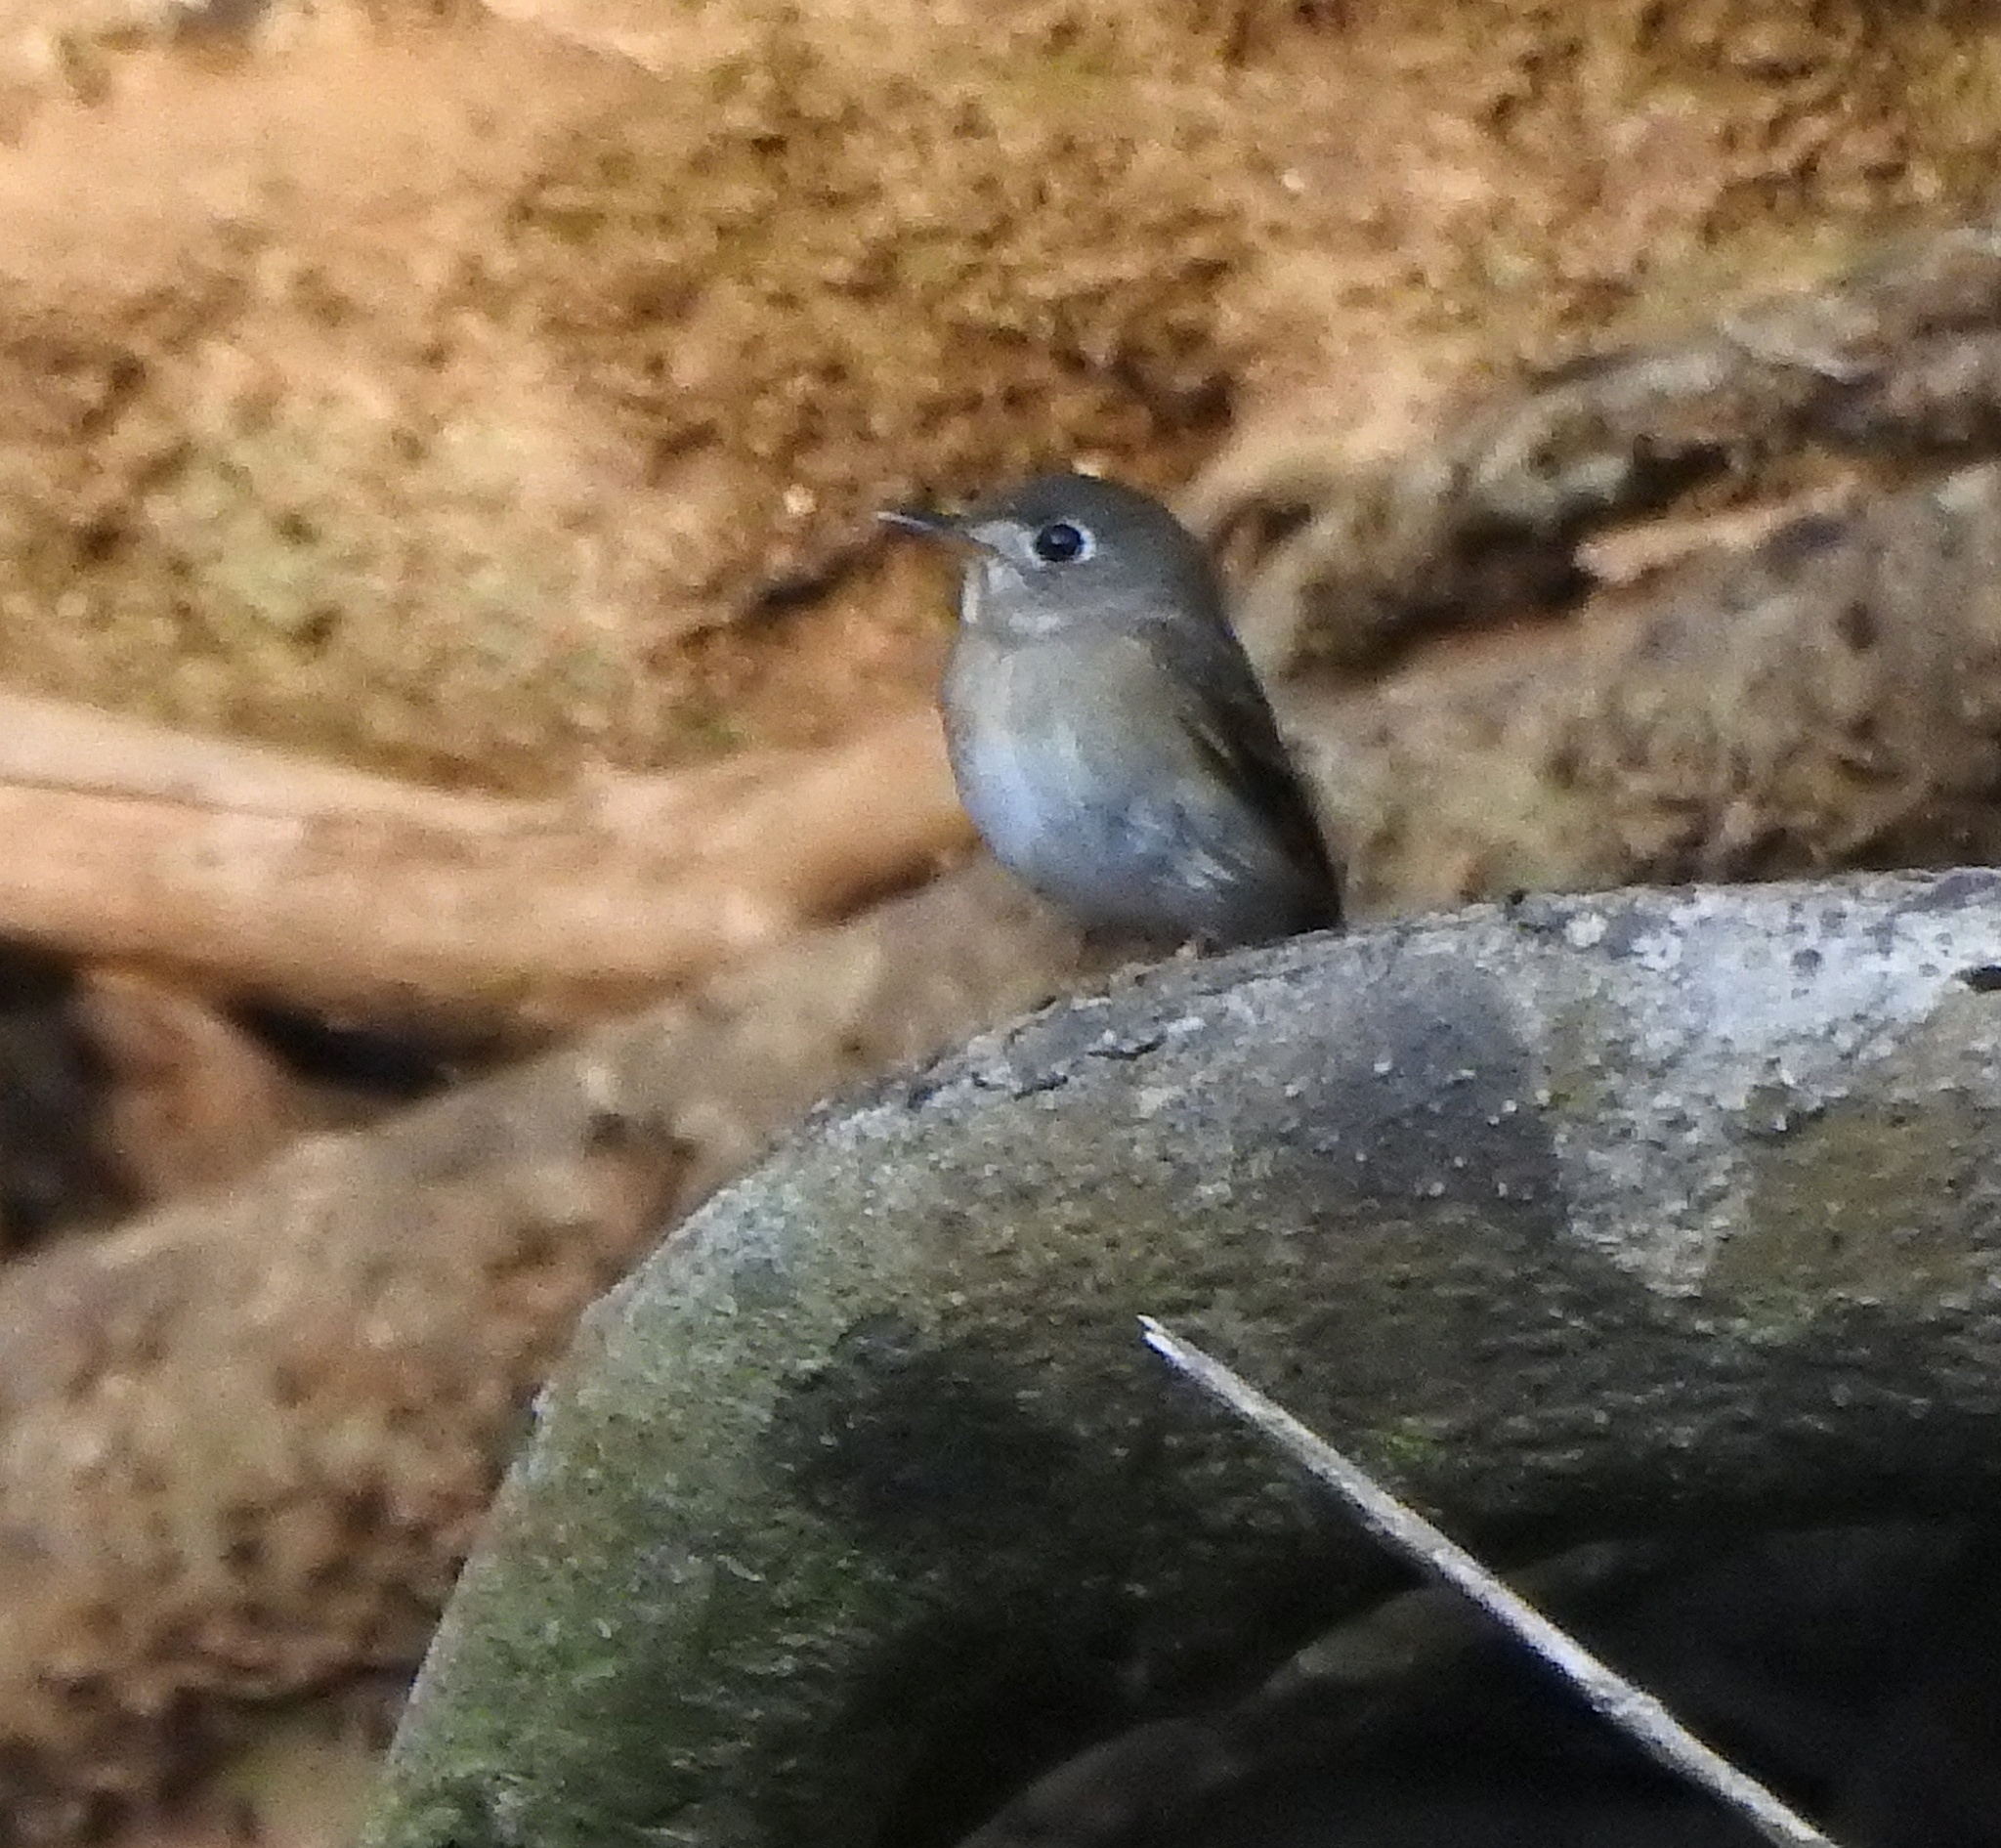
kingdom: Animalia
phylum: Chordata
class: Aves
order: Passeriformes
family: Muscicapidae
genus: Muscicapa
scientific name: Muscicapa muttui
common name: Brown-breasted flycatcher
